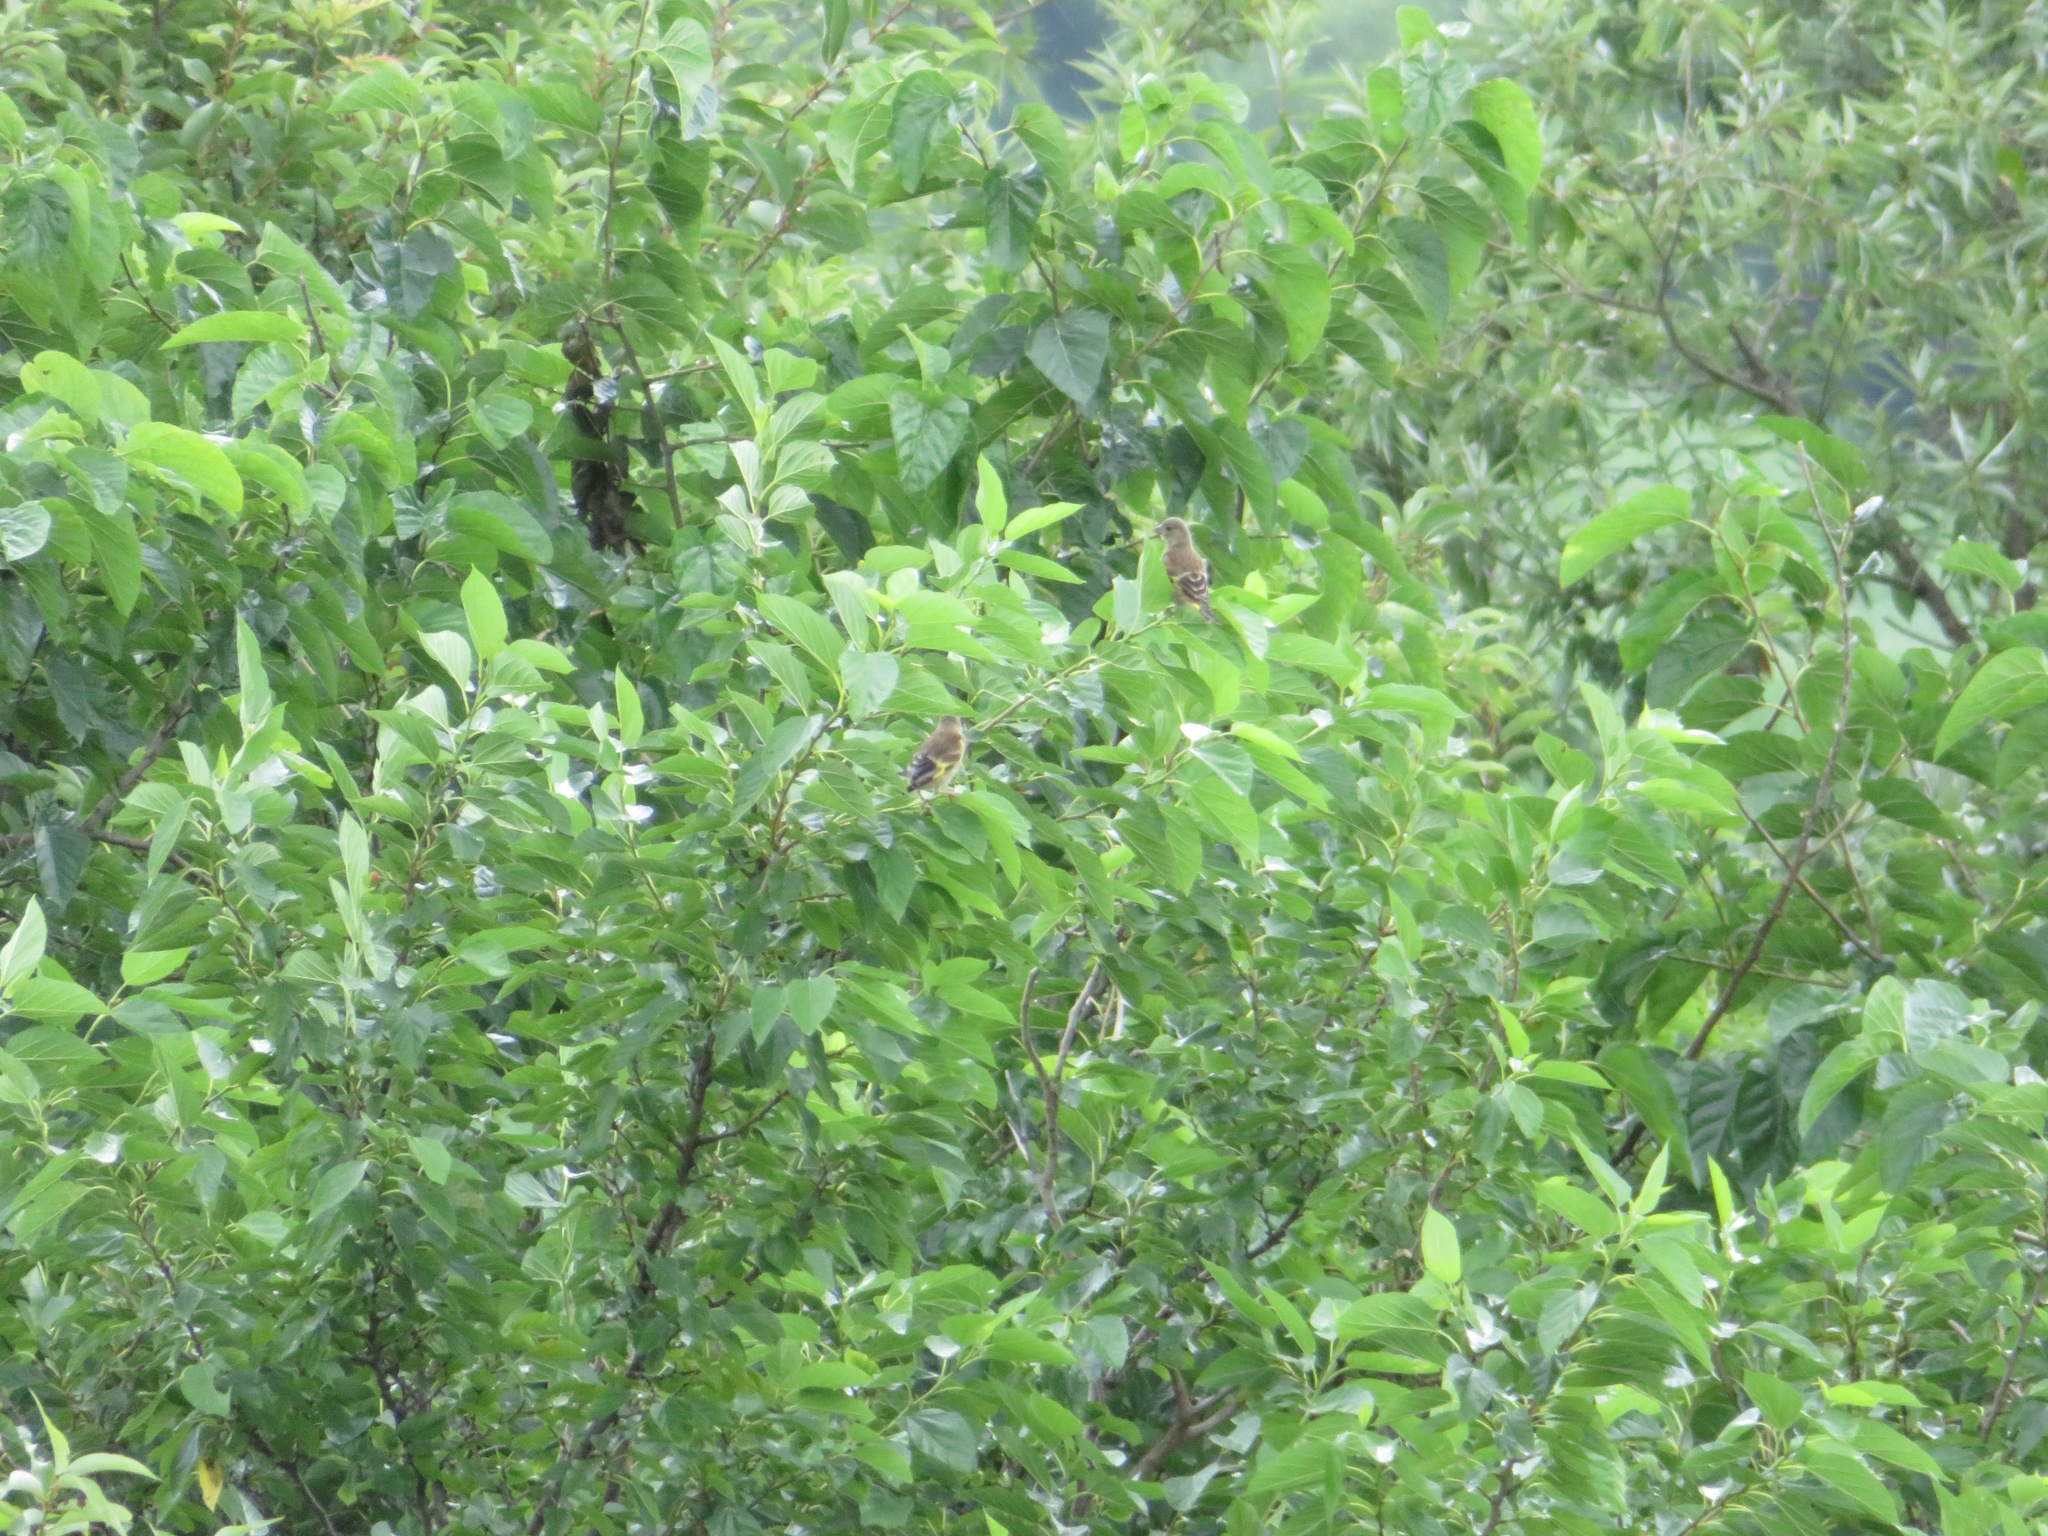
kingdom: Plantae
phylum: Tracheophyta
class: Liliopsida
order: Poales
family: Poaceae
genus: Chloris
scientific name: Chloris sinica
